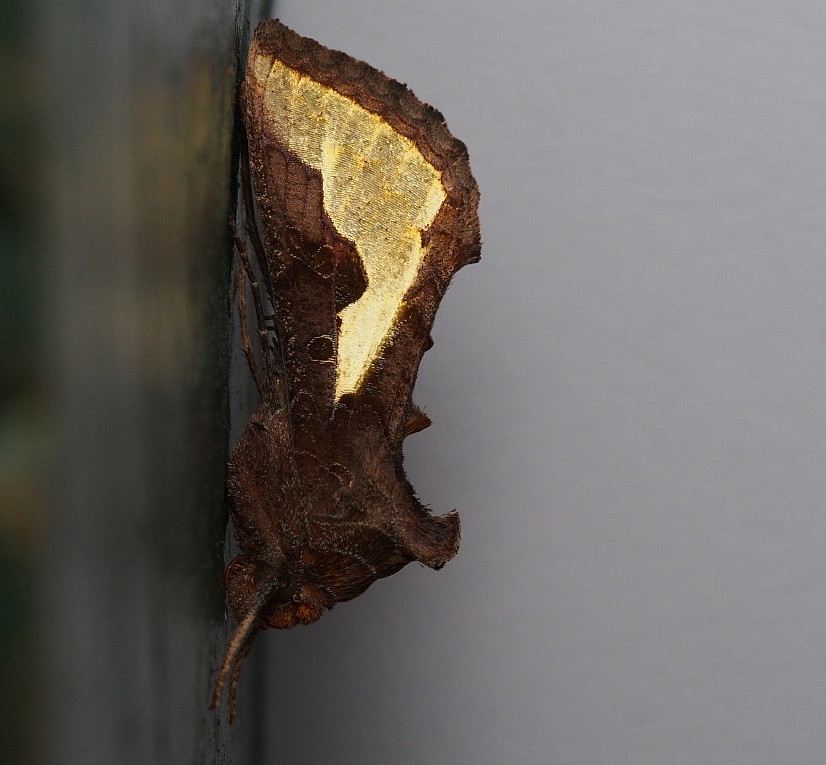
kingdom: Animalia
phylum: Arthropoda
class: Insecta
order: Lepidoptera
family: Noctuidae
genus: Thysanoplusia
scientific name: Thysanoplusia orichalcea
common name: Slender burnished brass, golden plusia
